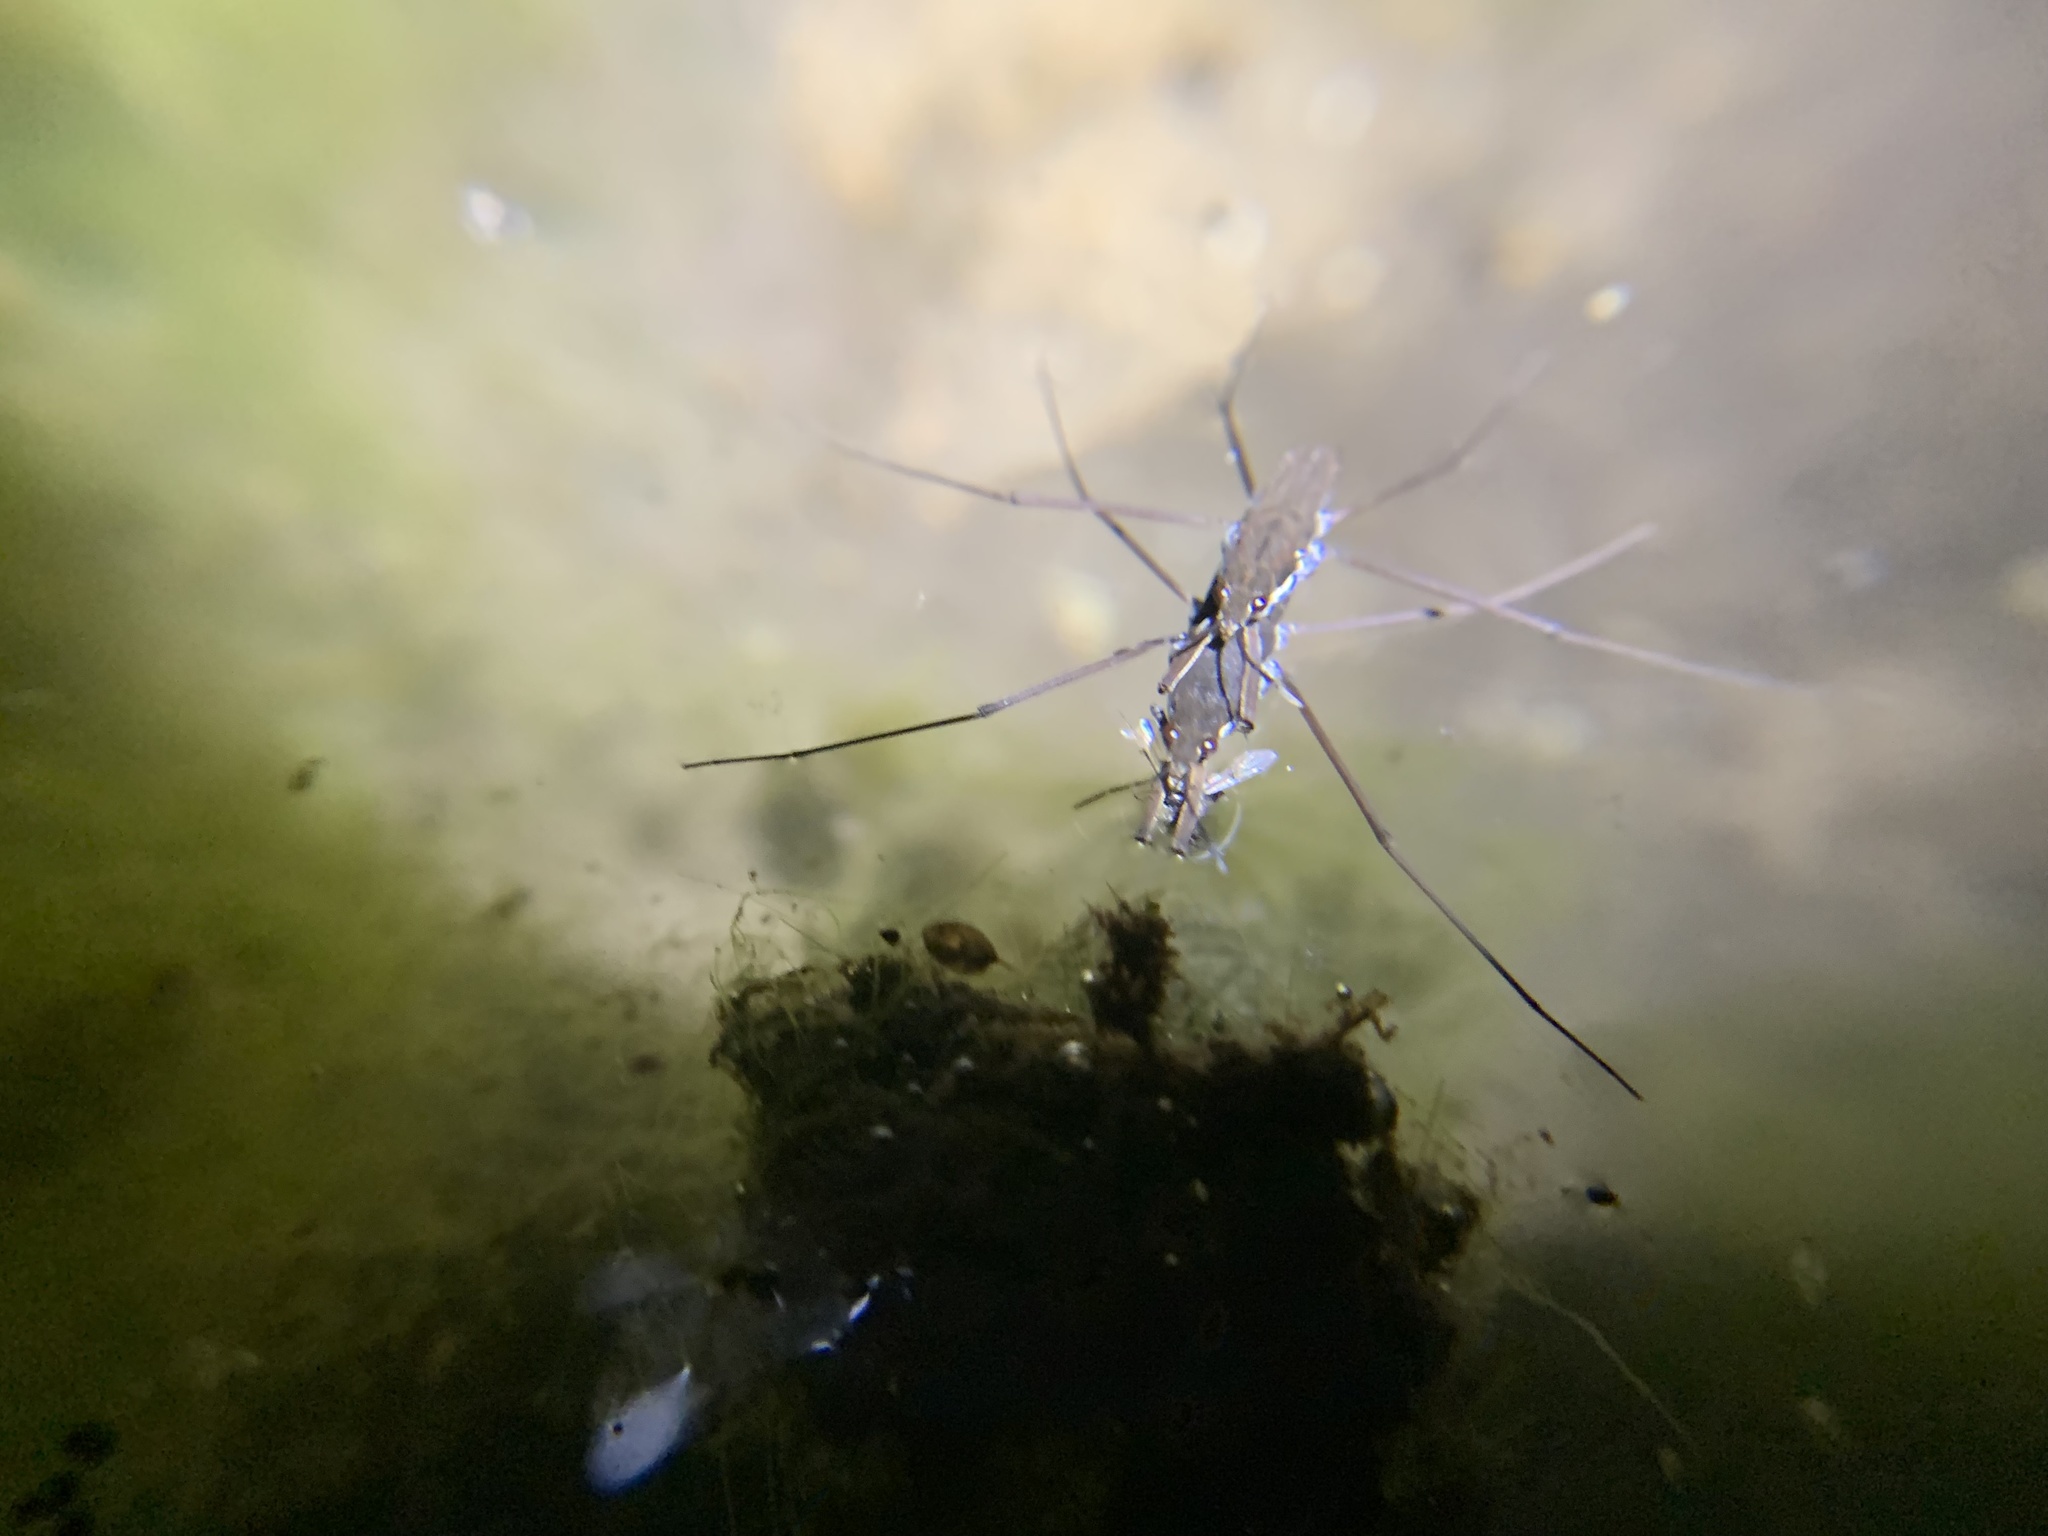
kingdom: Animalia
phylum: Arthropoda
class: Insecta
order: Hemiptera
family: Gerridae
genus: Aquarius
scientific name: Aquarius remigis
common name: Common water strider
